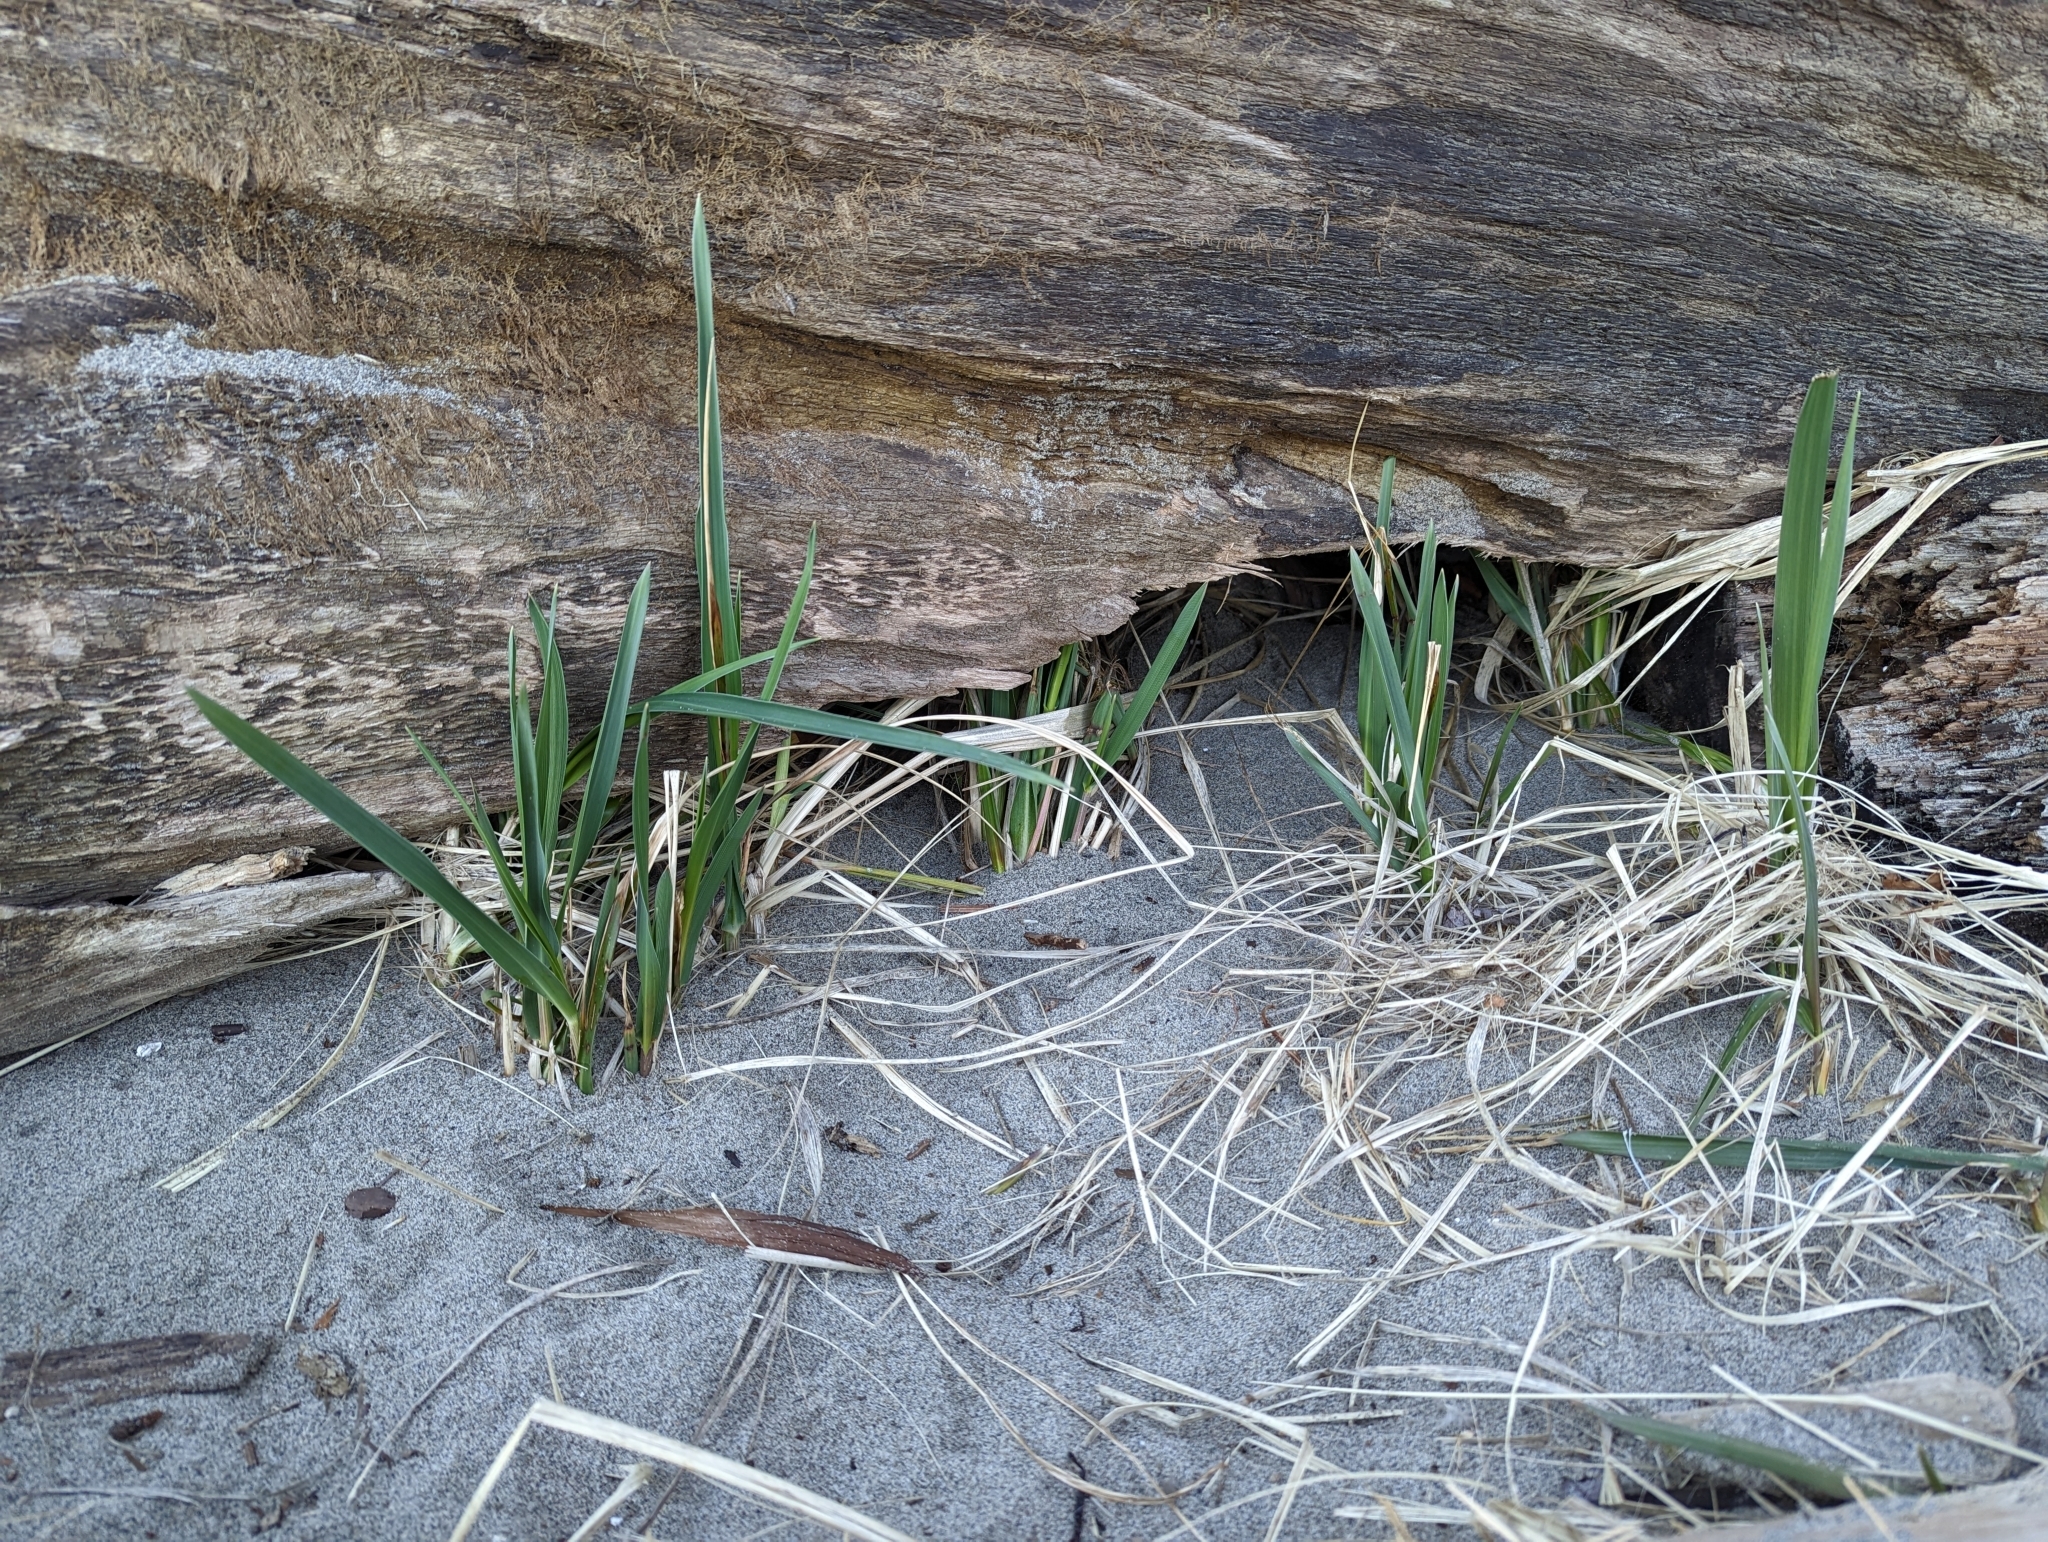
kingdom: Plantae
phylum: Tracheophyta
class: Liliopsida
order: Poales
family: Poaceae
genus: Leymus
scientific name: Leymus mollis
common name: American dune grass
